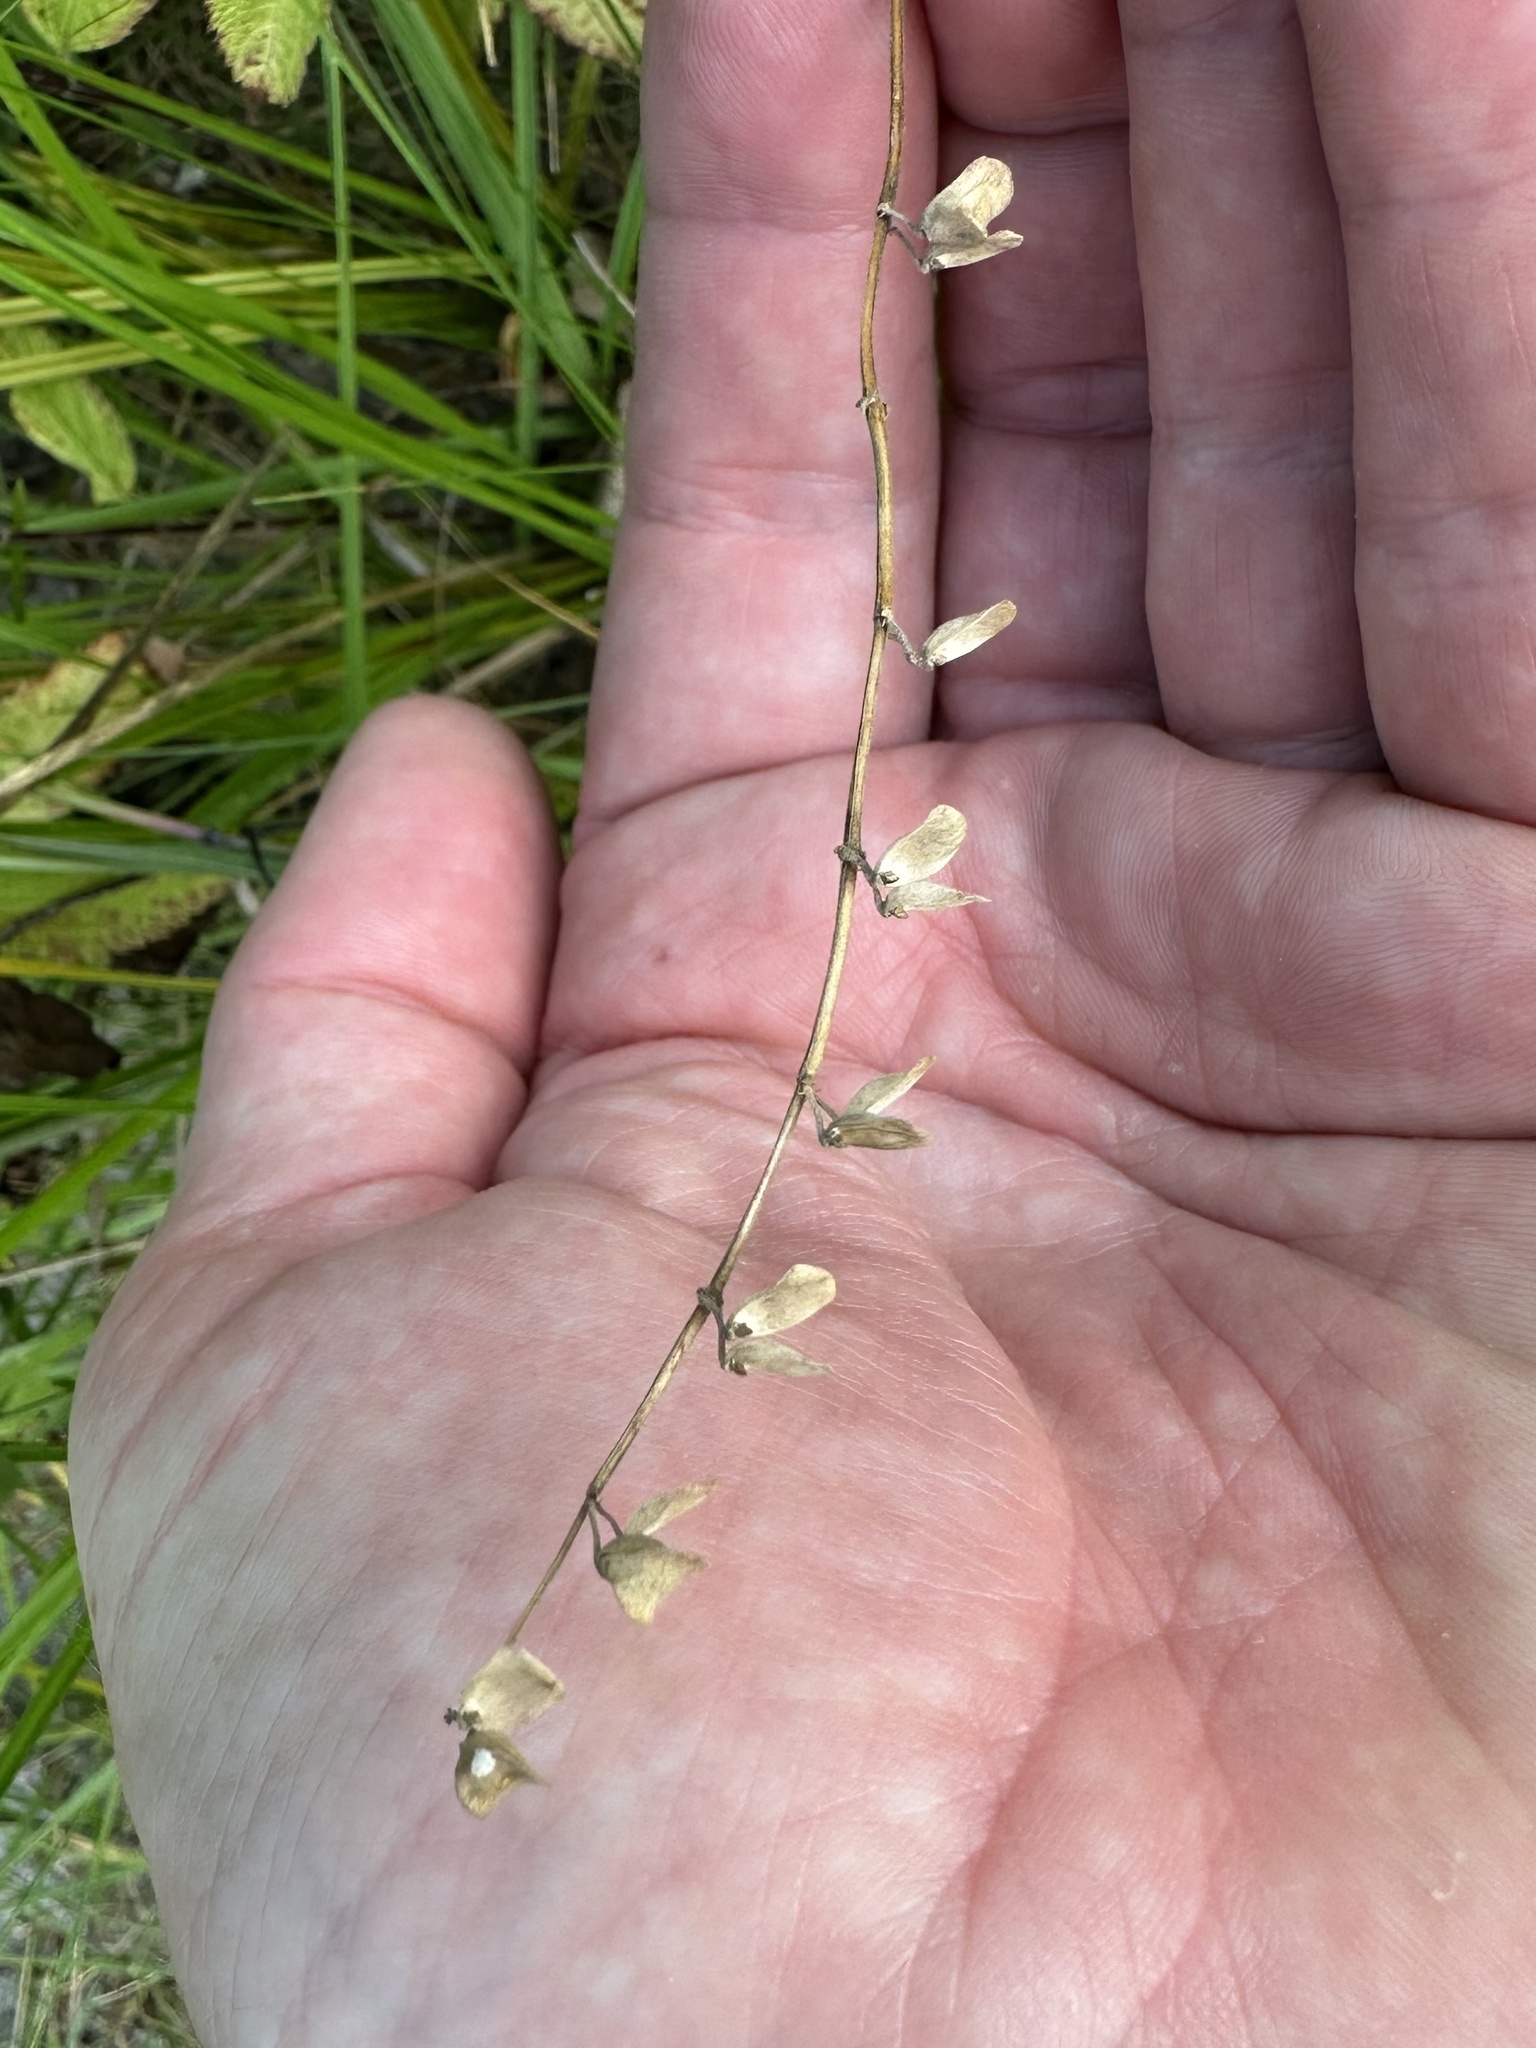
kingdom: Plantae
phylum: Tracheophyta
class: Magnoliopsida
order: Lamiales
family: Lamiaceae
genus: Scutellaria
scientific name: Scutellaria galericulata
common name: Skullcap
